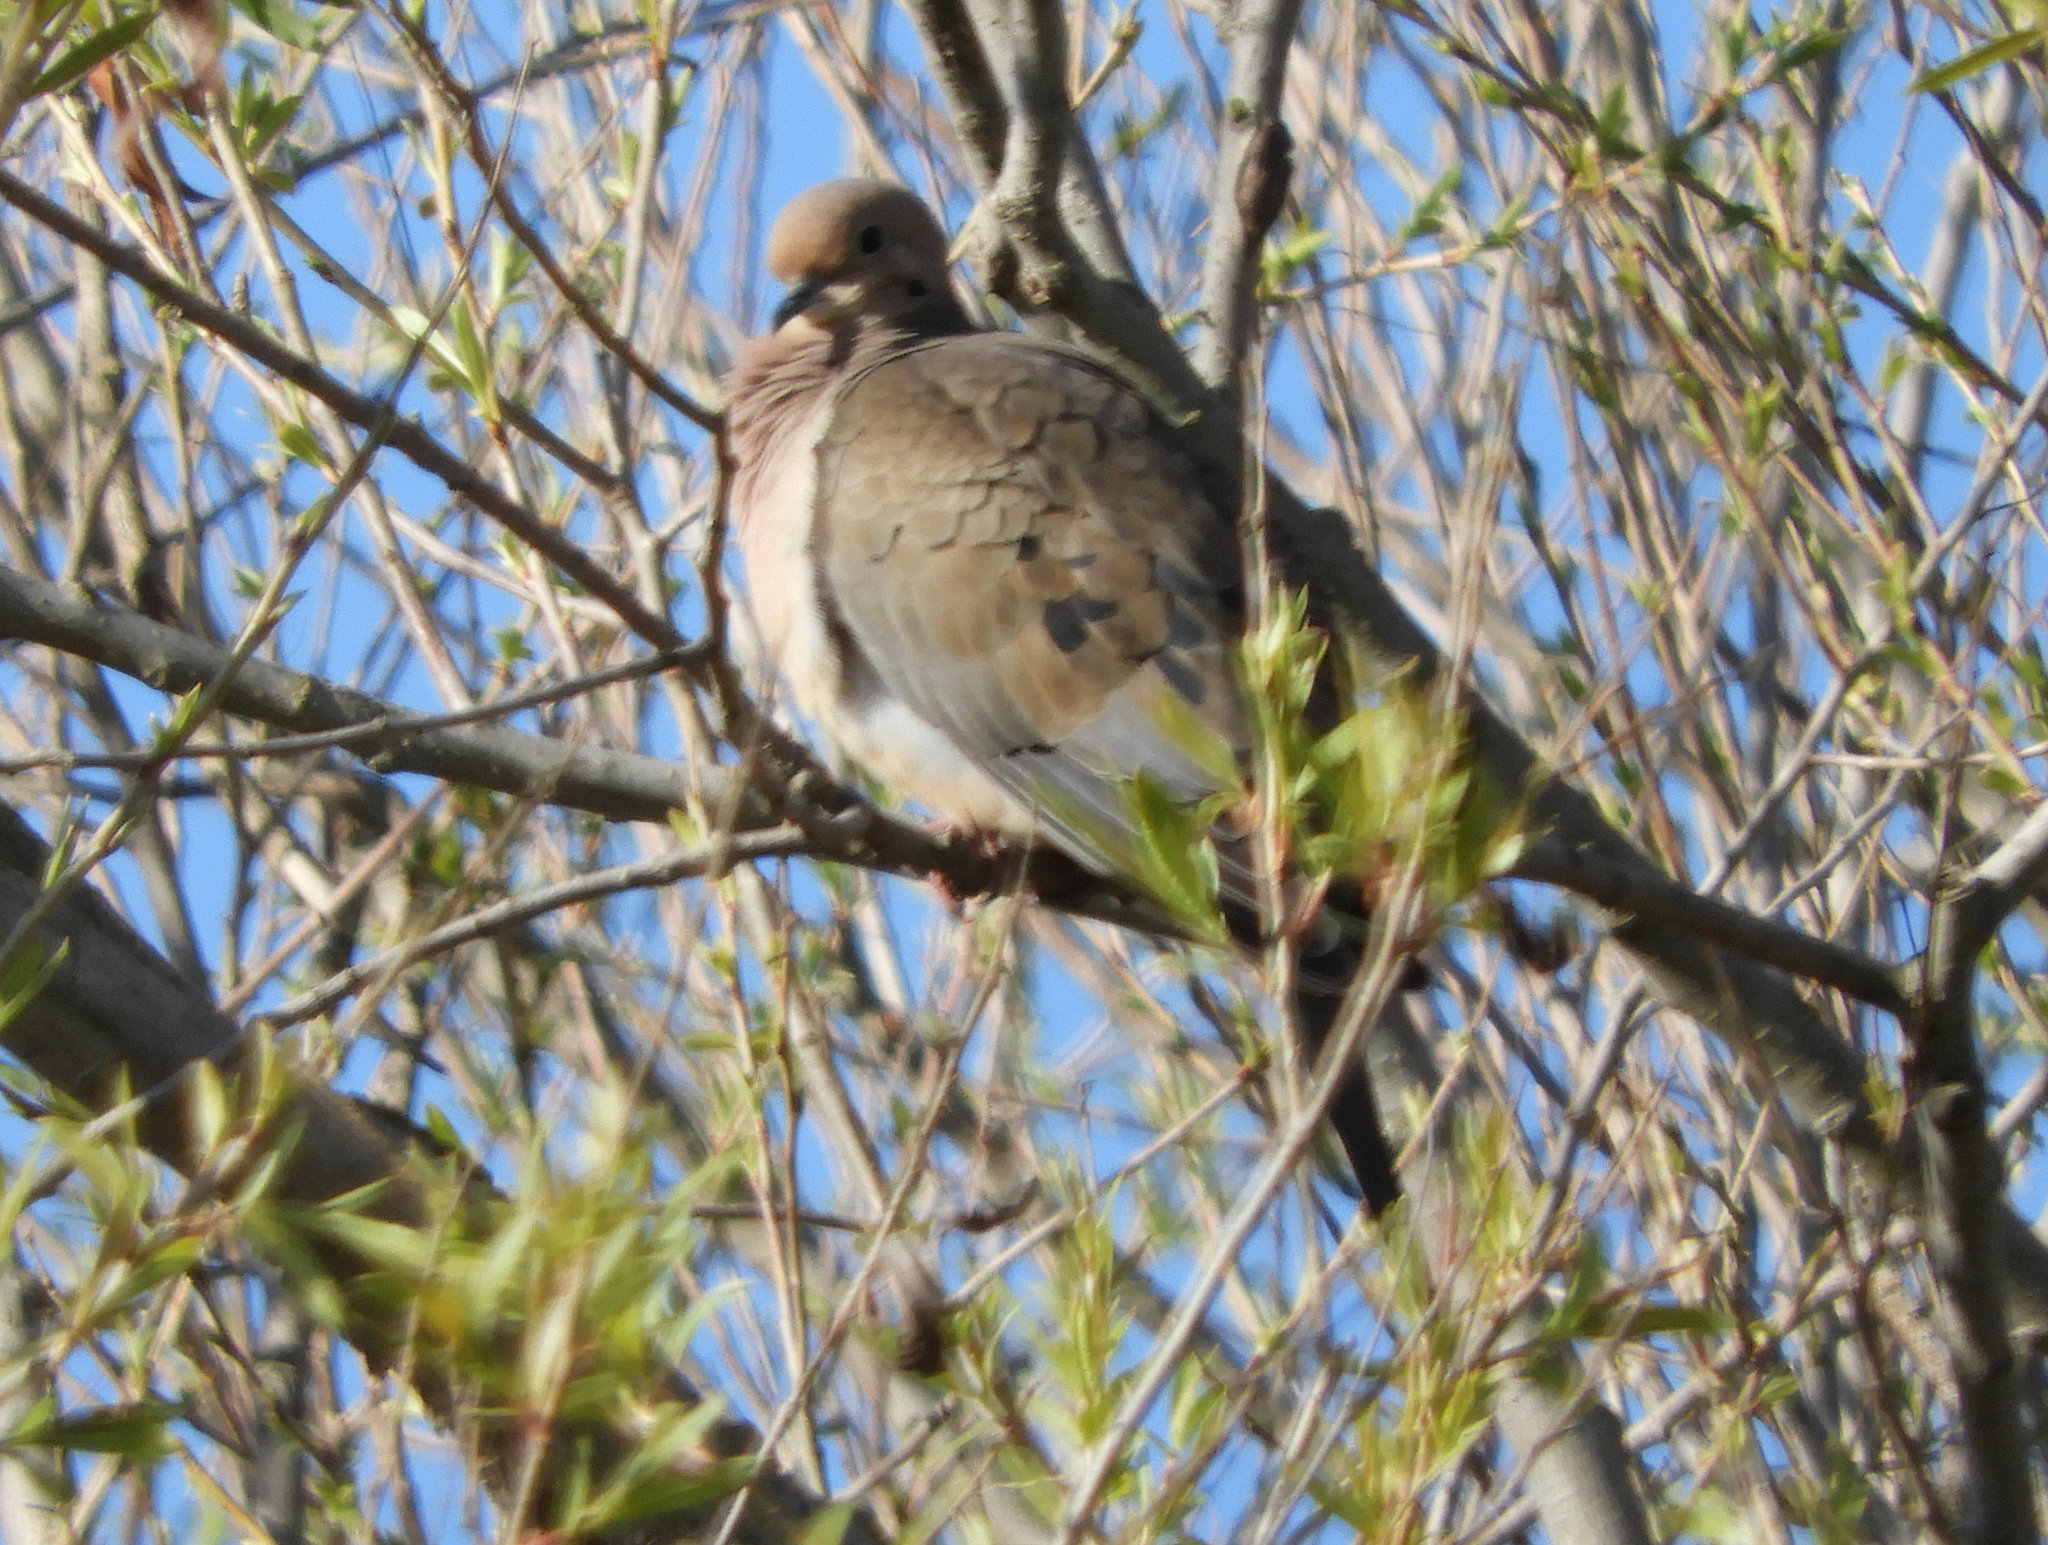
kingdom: Animalia
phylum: Chordata
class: Aves
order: Columbiformes
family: Columbidae
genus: Zenaida
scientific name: Zenaida macroura
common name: Mourning dove
